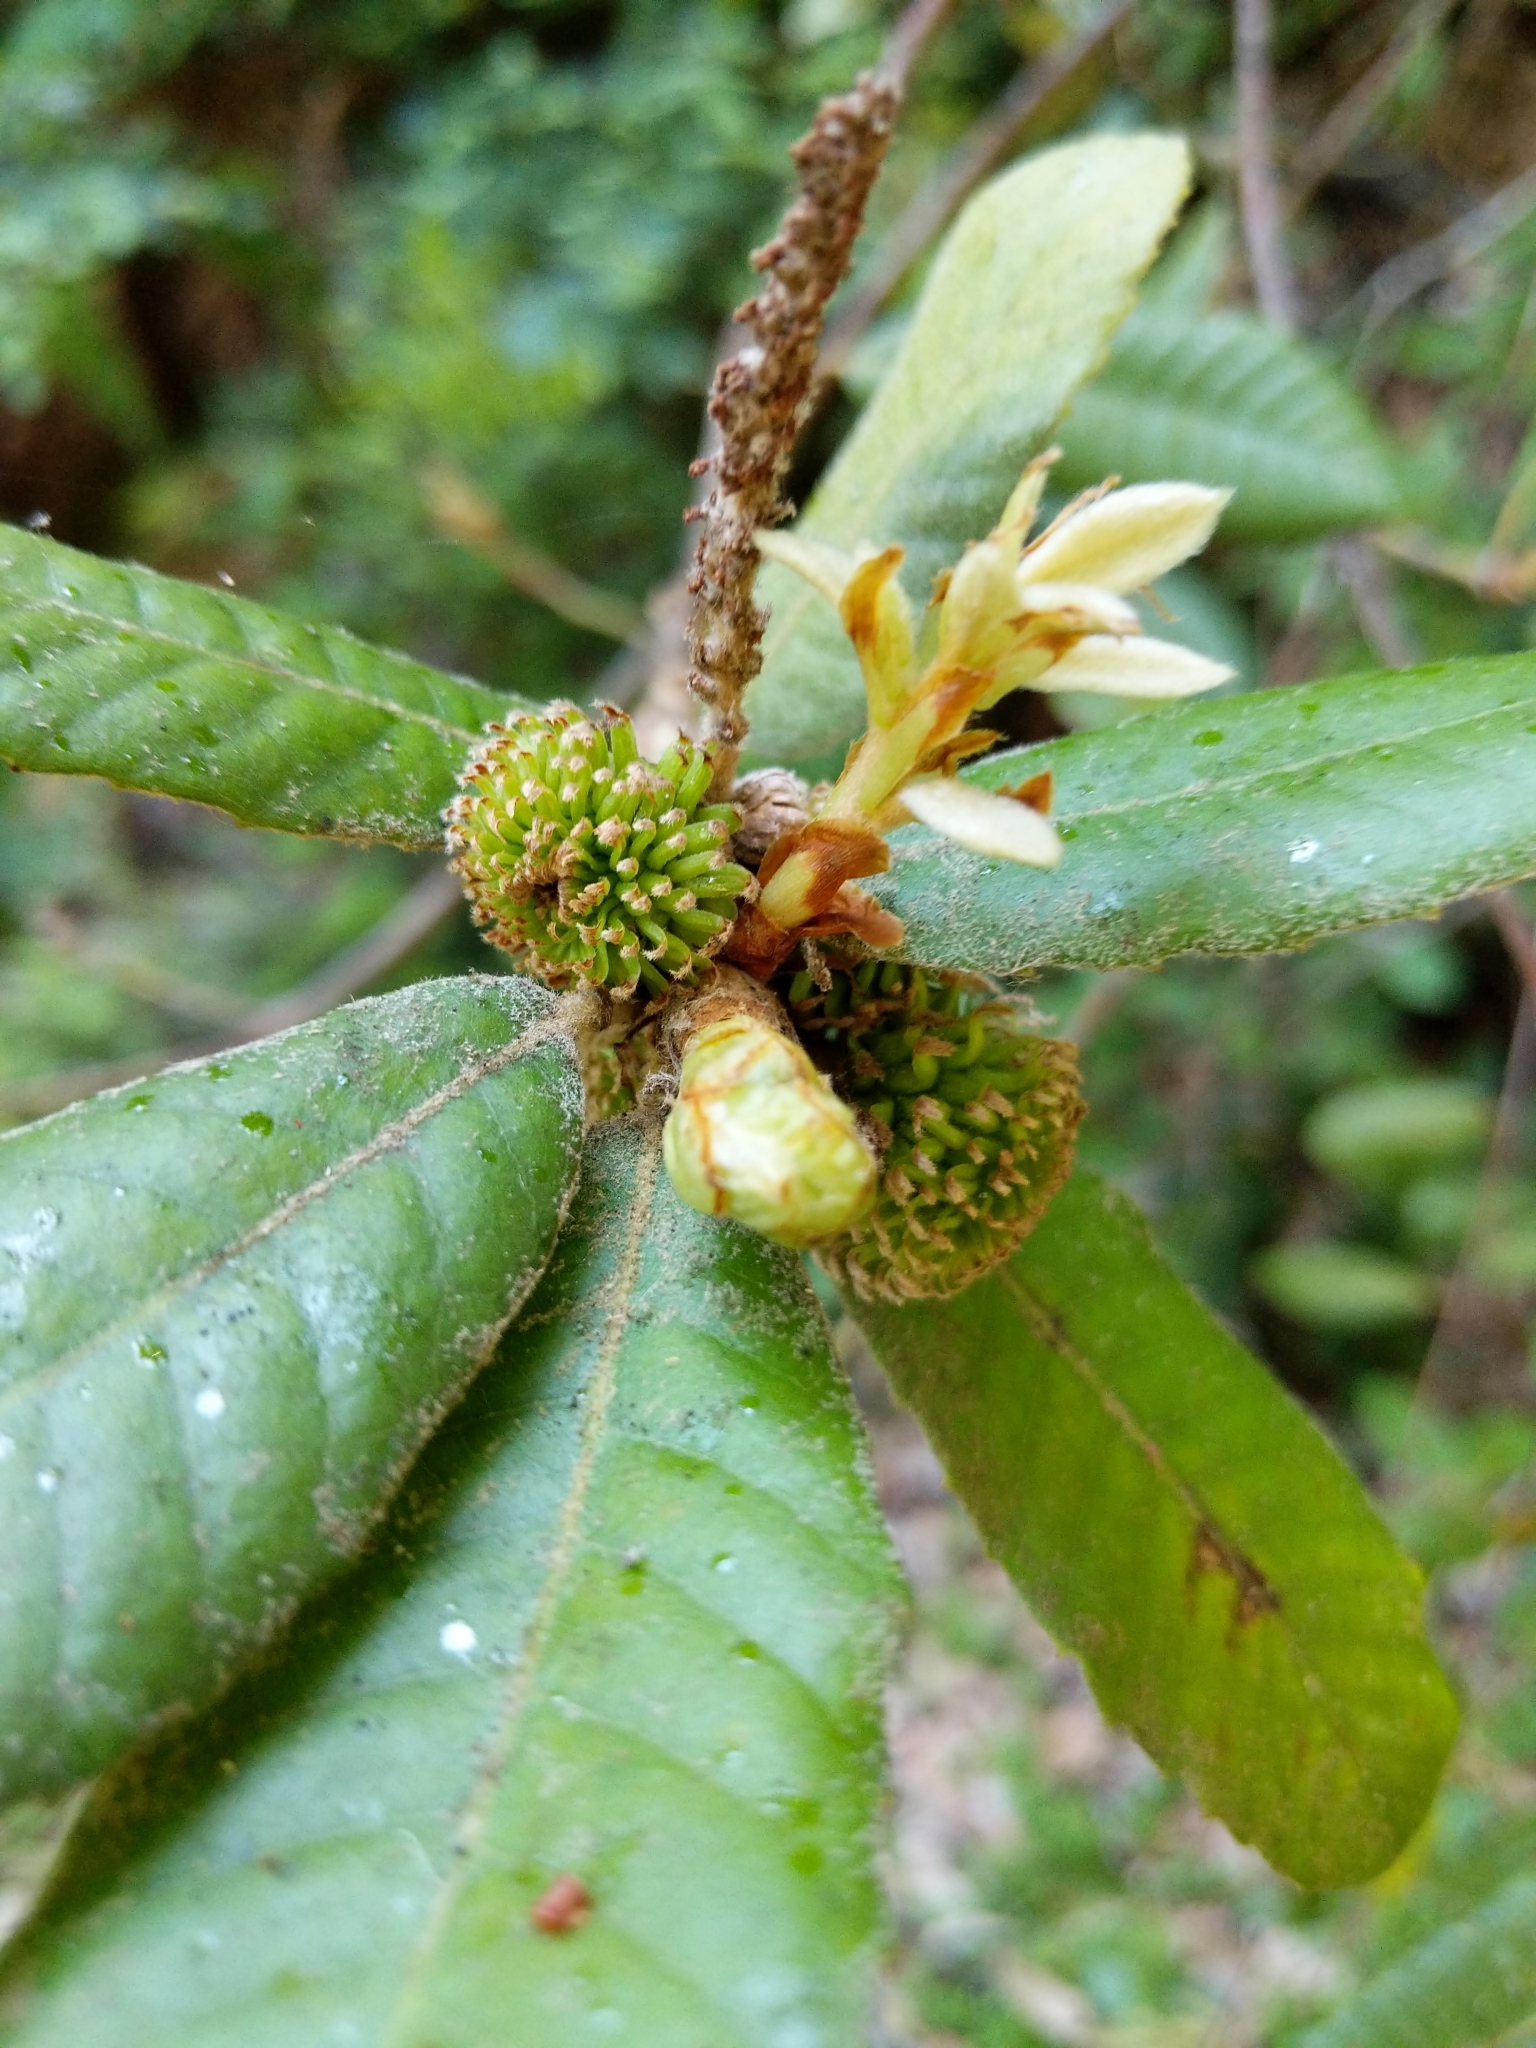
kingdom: Plantae
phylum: Tracheophyta
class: Magnoliopsida
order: Fagales
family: Fagaceae
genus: Notholithocarpus
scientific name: Notholithocarpus densiflorus
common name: Tan bark oak
